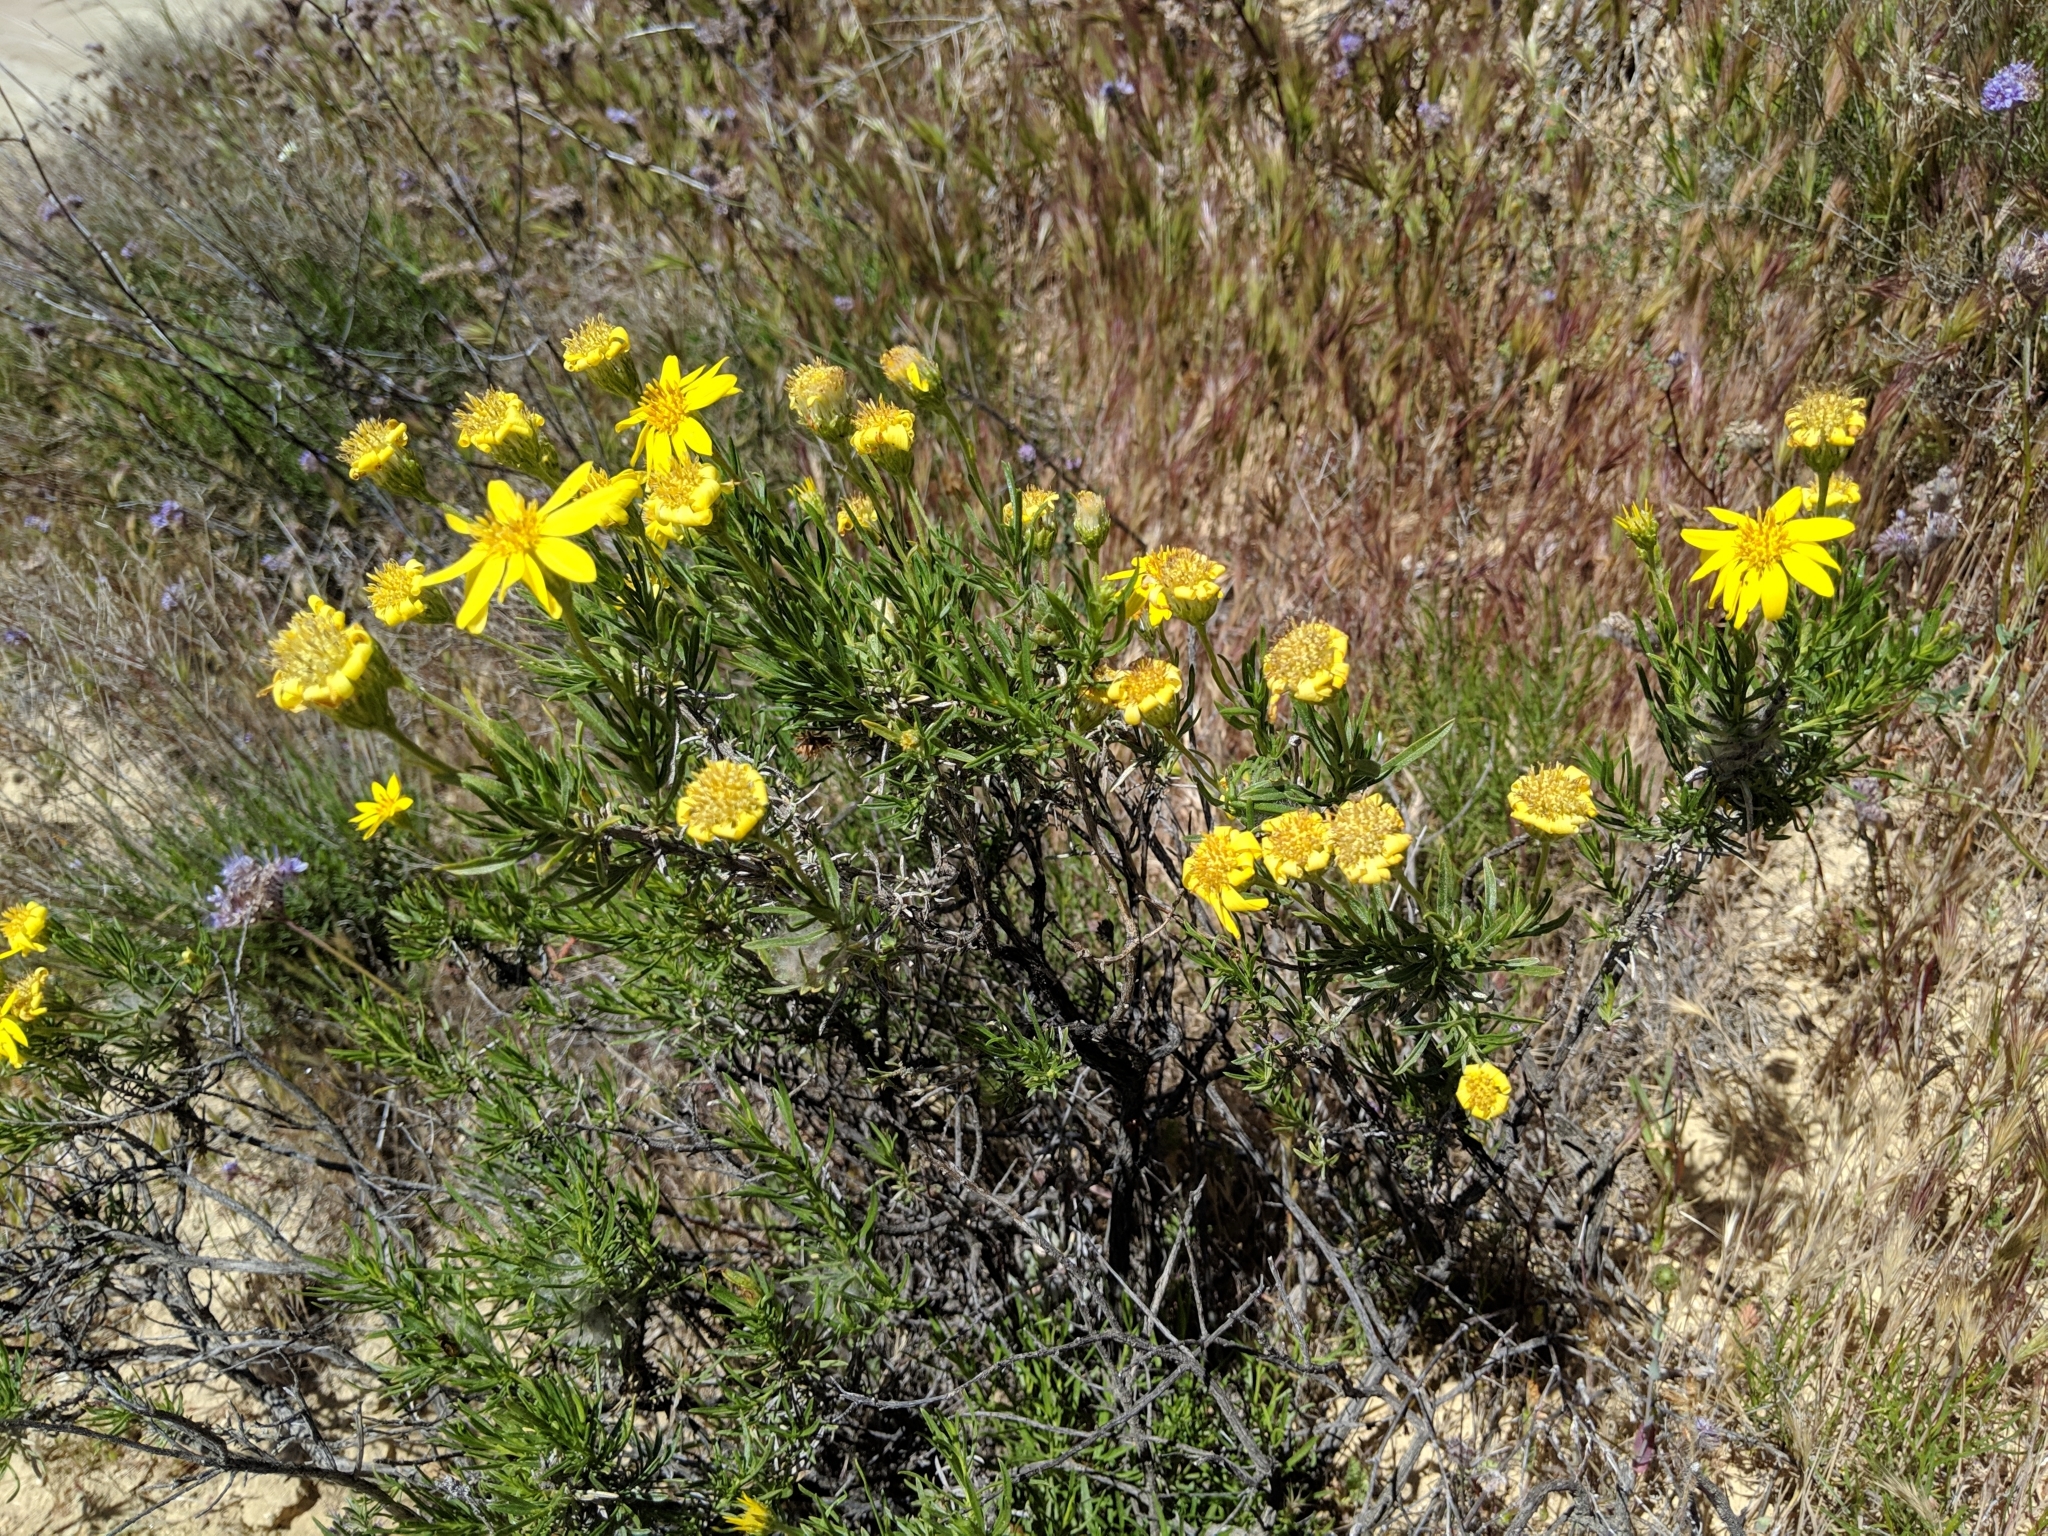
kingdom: Plantae
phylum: Tracheophyta
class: Magnoliopsida
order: Asterales
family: Asteraceae
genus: Ericameria
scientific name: Ericameria linearifolia
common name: Interior goldenbush
